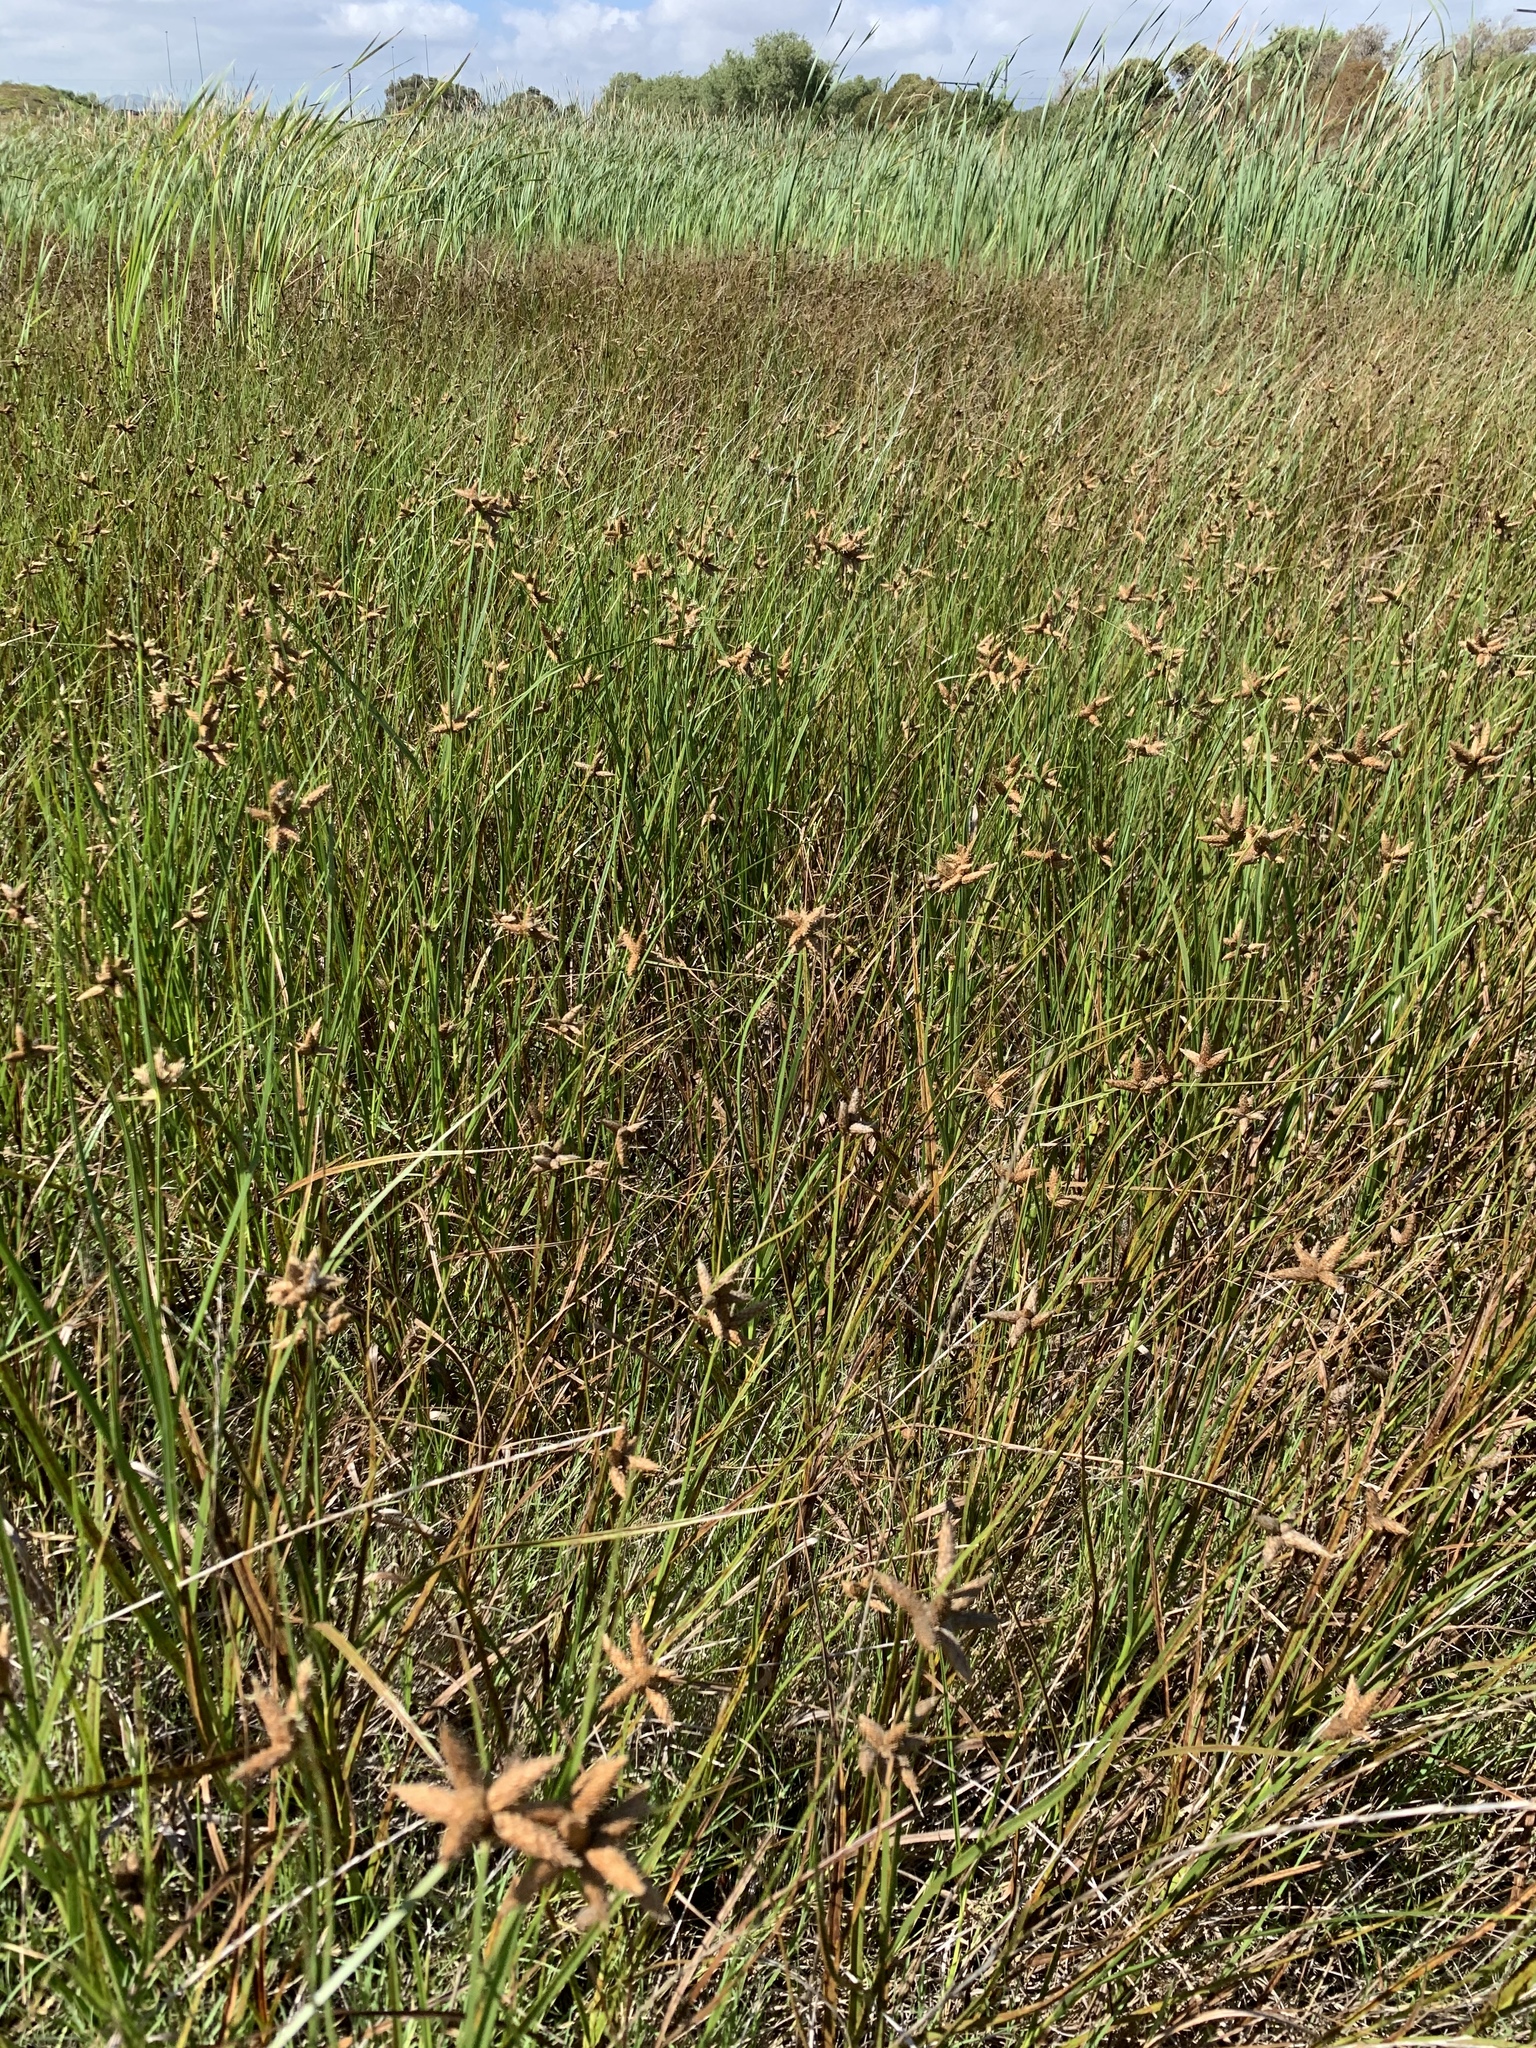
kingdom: Plantae
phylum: Tracheophyta
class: Liliopsida
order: Poales
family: Cyperaceae
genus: Bolboschoenus
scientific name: Bolboschoenus maritimus
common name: Sea club-rush
